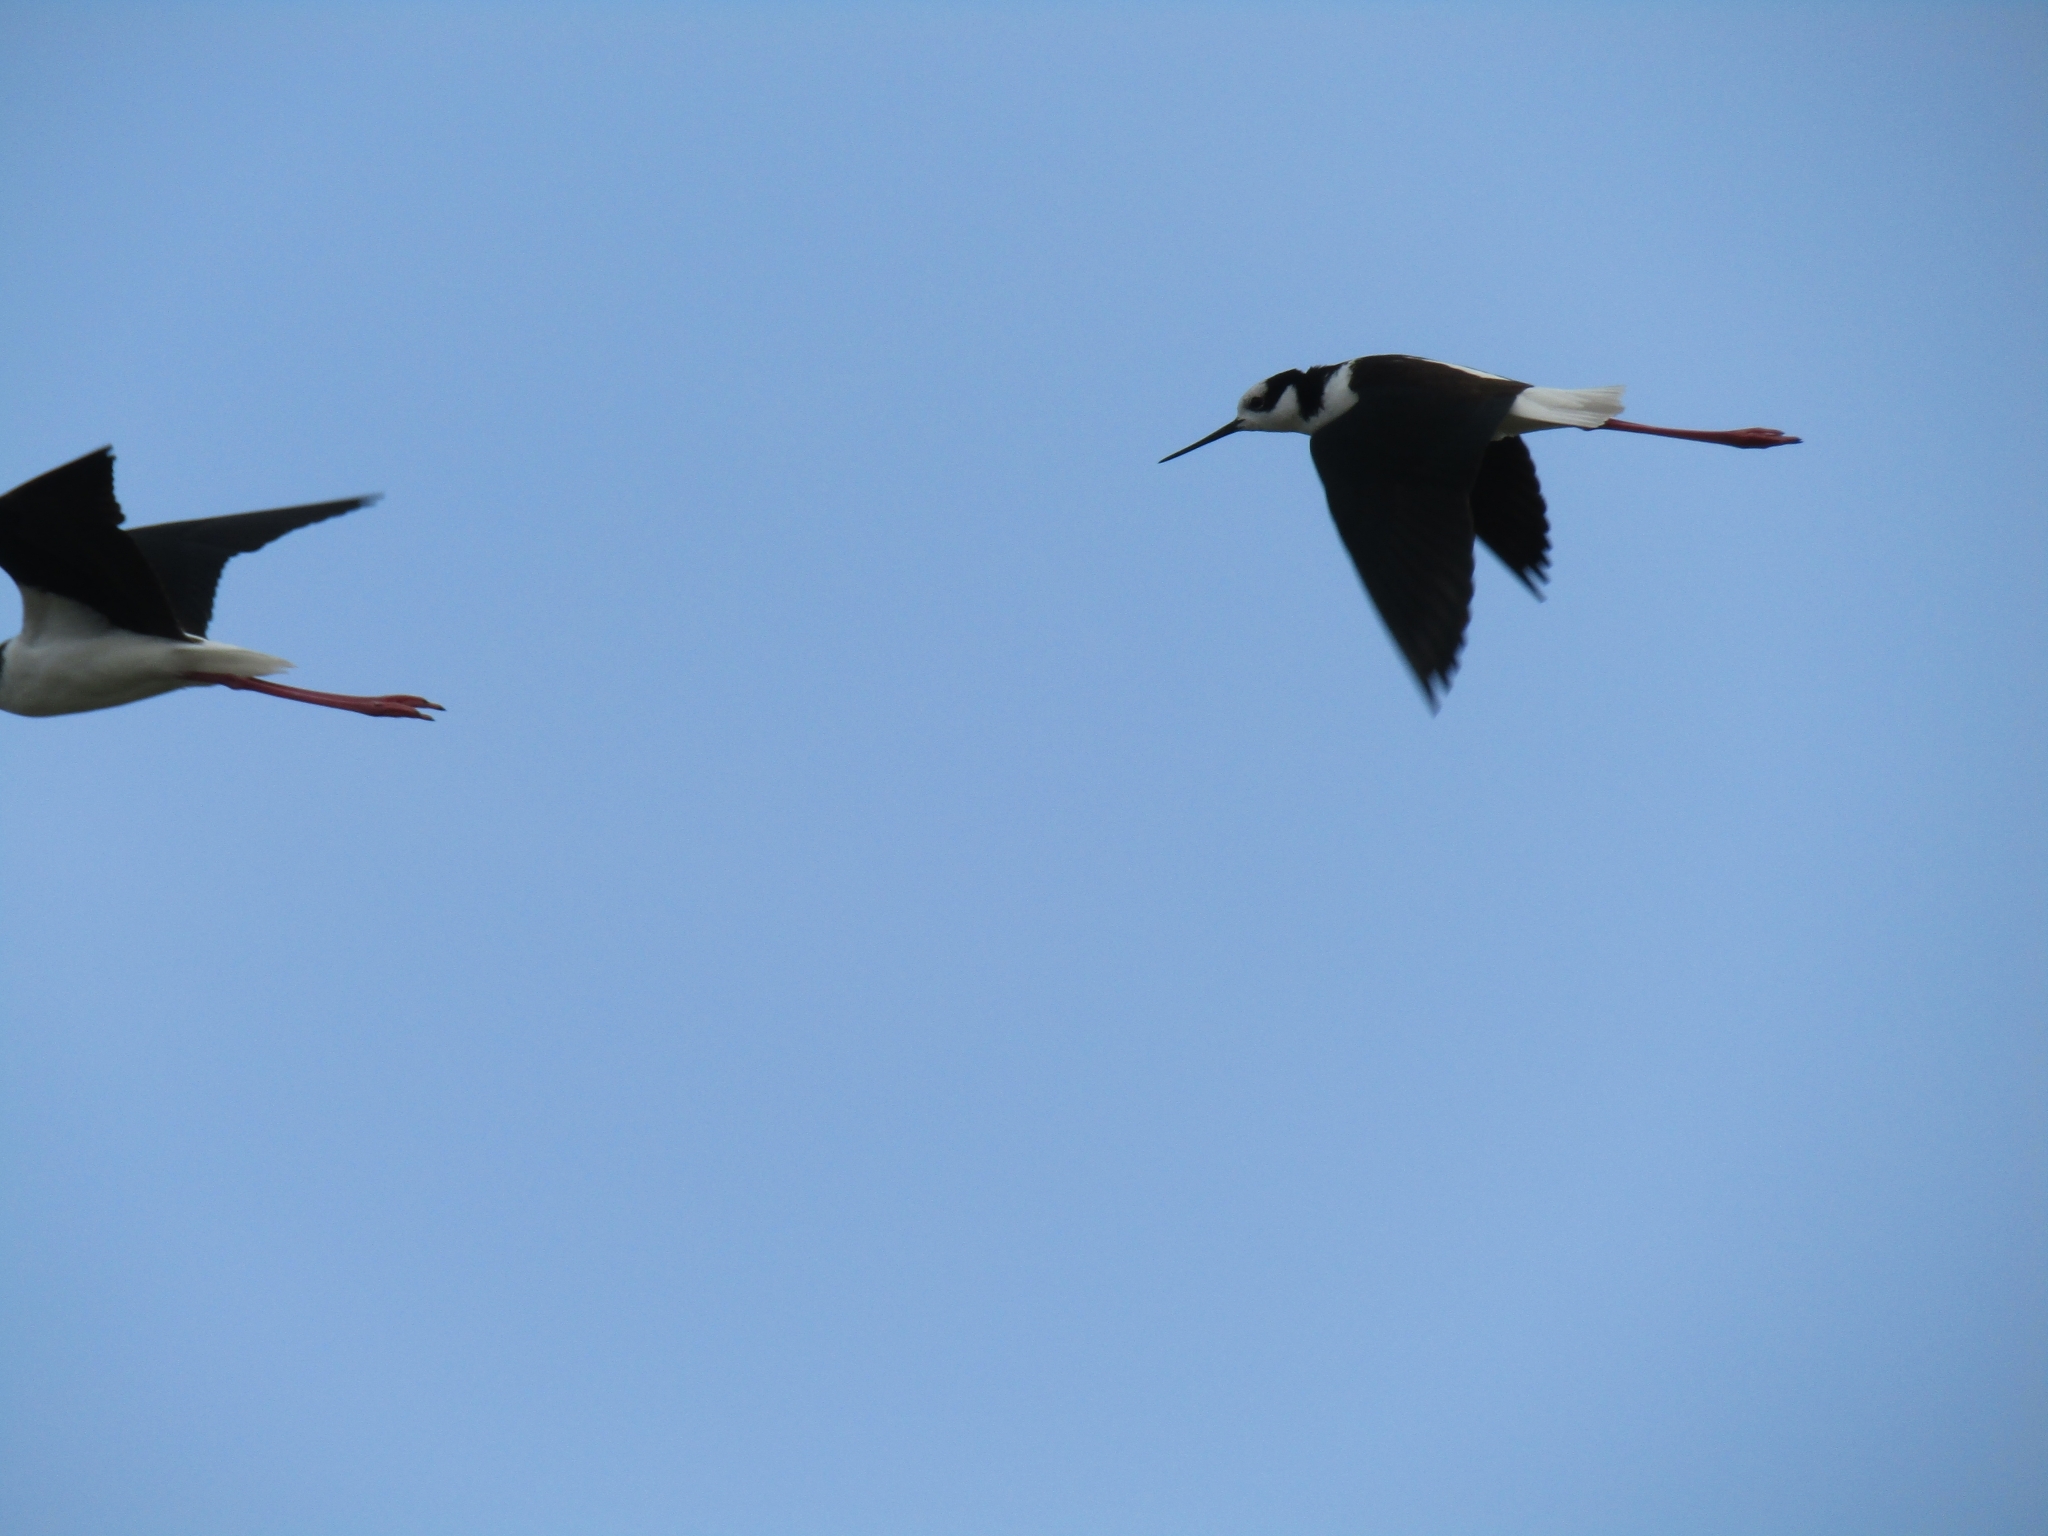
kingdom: Animalia
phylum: Chordata
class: Aves
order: Charadriiformes
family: Recurvirostridae
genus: Himantopus
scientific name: Himantopus mexicanus
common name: Black-necked stilt
